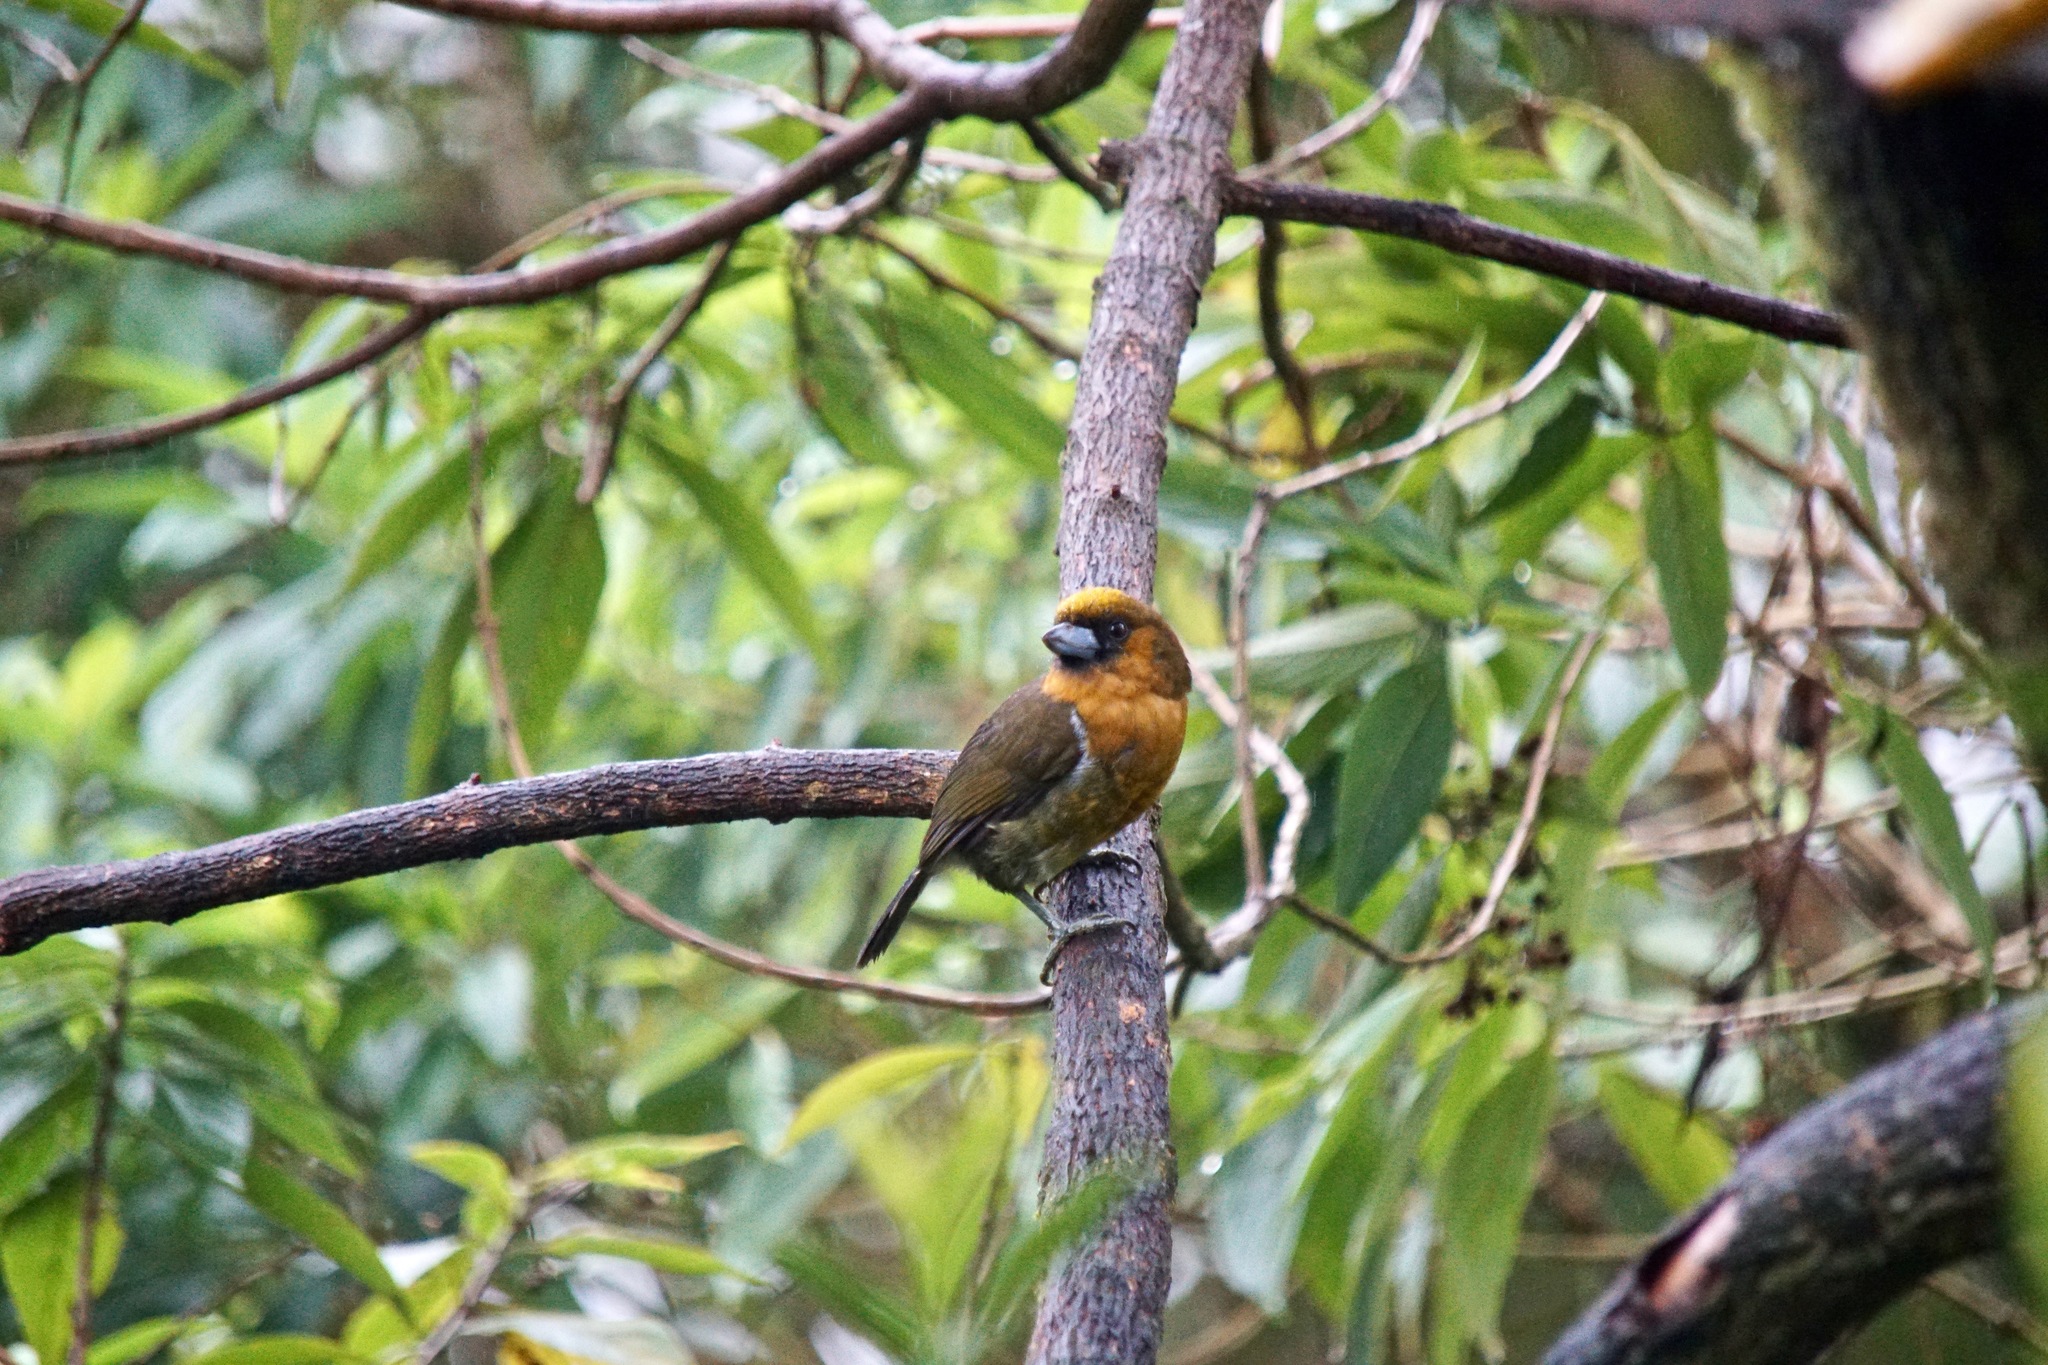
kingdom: Animalia
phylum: Chordata
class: Aves
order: Piciformes
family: Semnornithidae
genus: Semnornis
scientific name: Semnornis frantzii
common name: Prong-billed barbet
